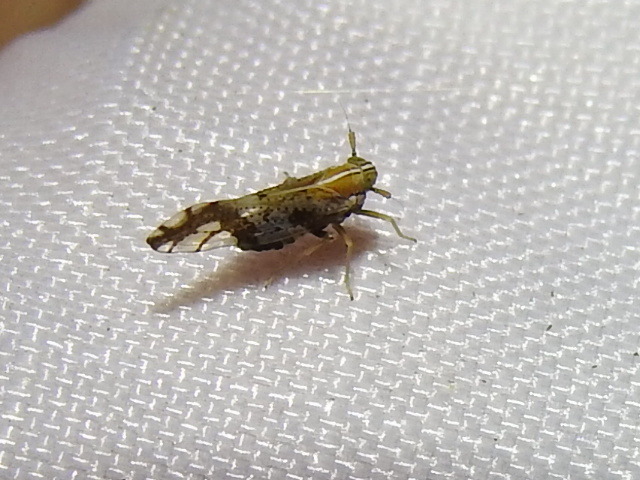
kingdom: Animalia
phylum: Arthropoda
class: Insecta
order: Hemiptera
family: Delphacidae
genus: Liburniella
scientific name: Liburniella ornata
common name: Ornate planthopper
